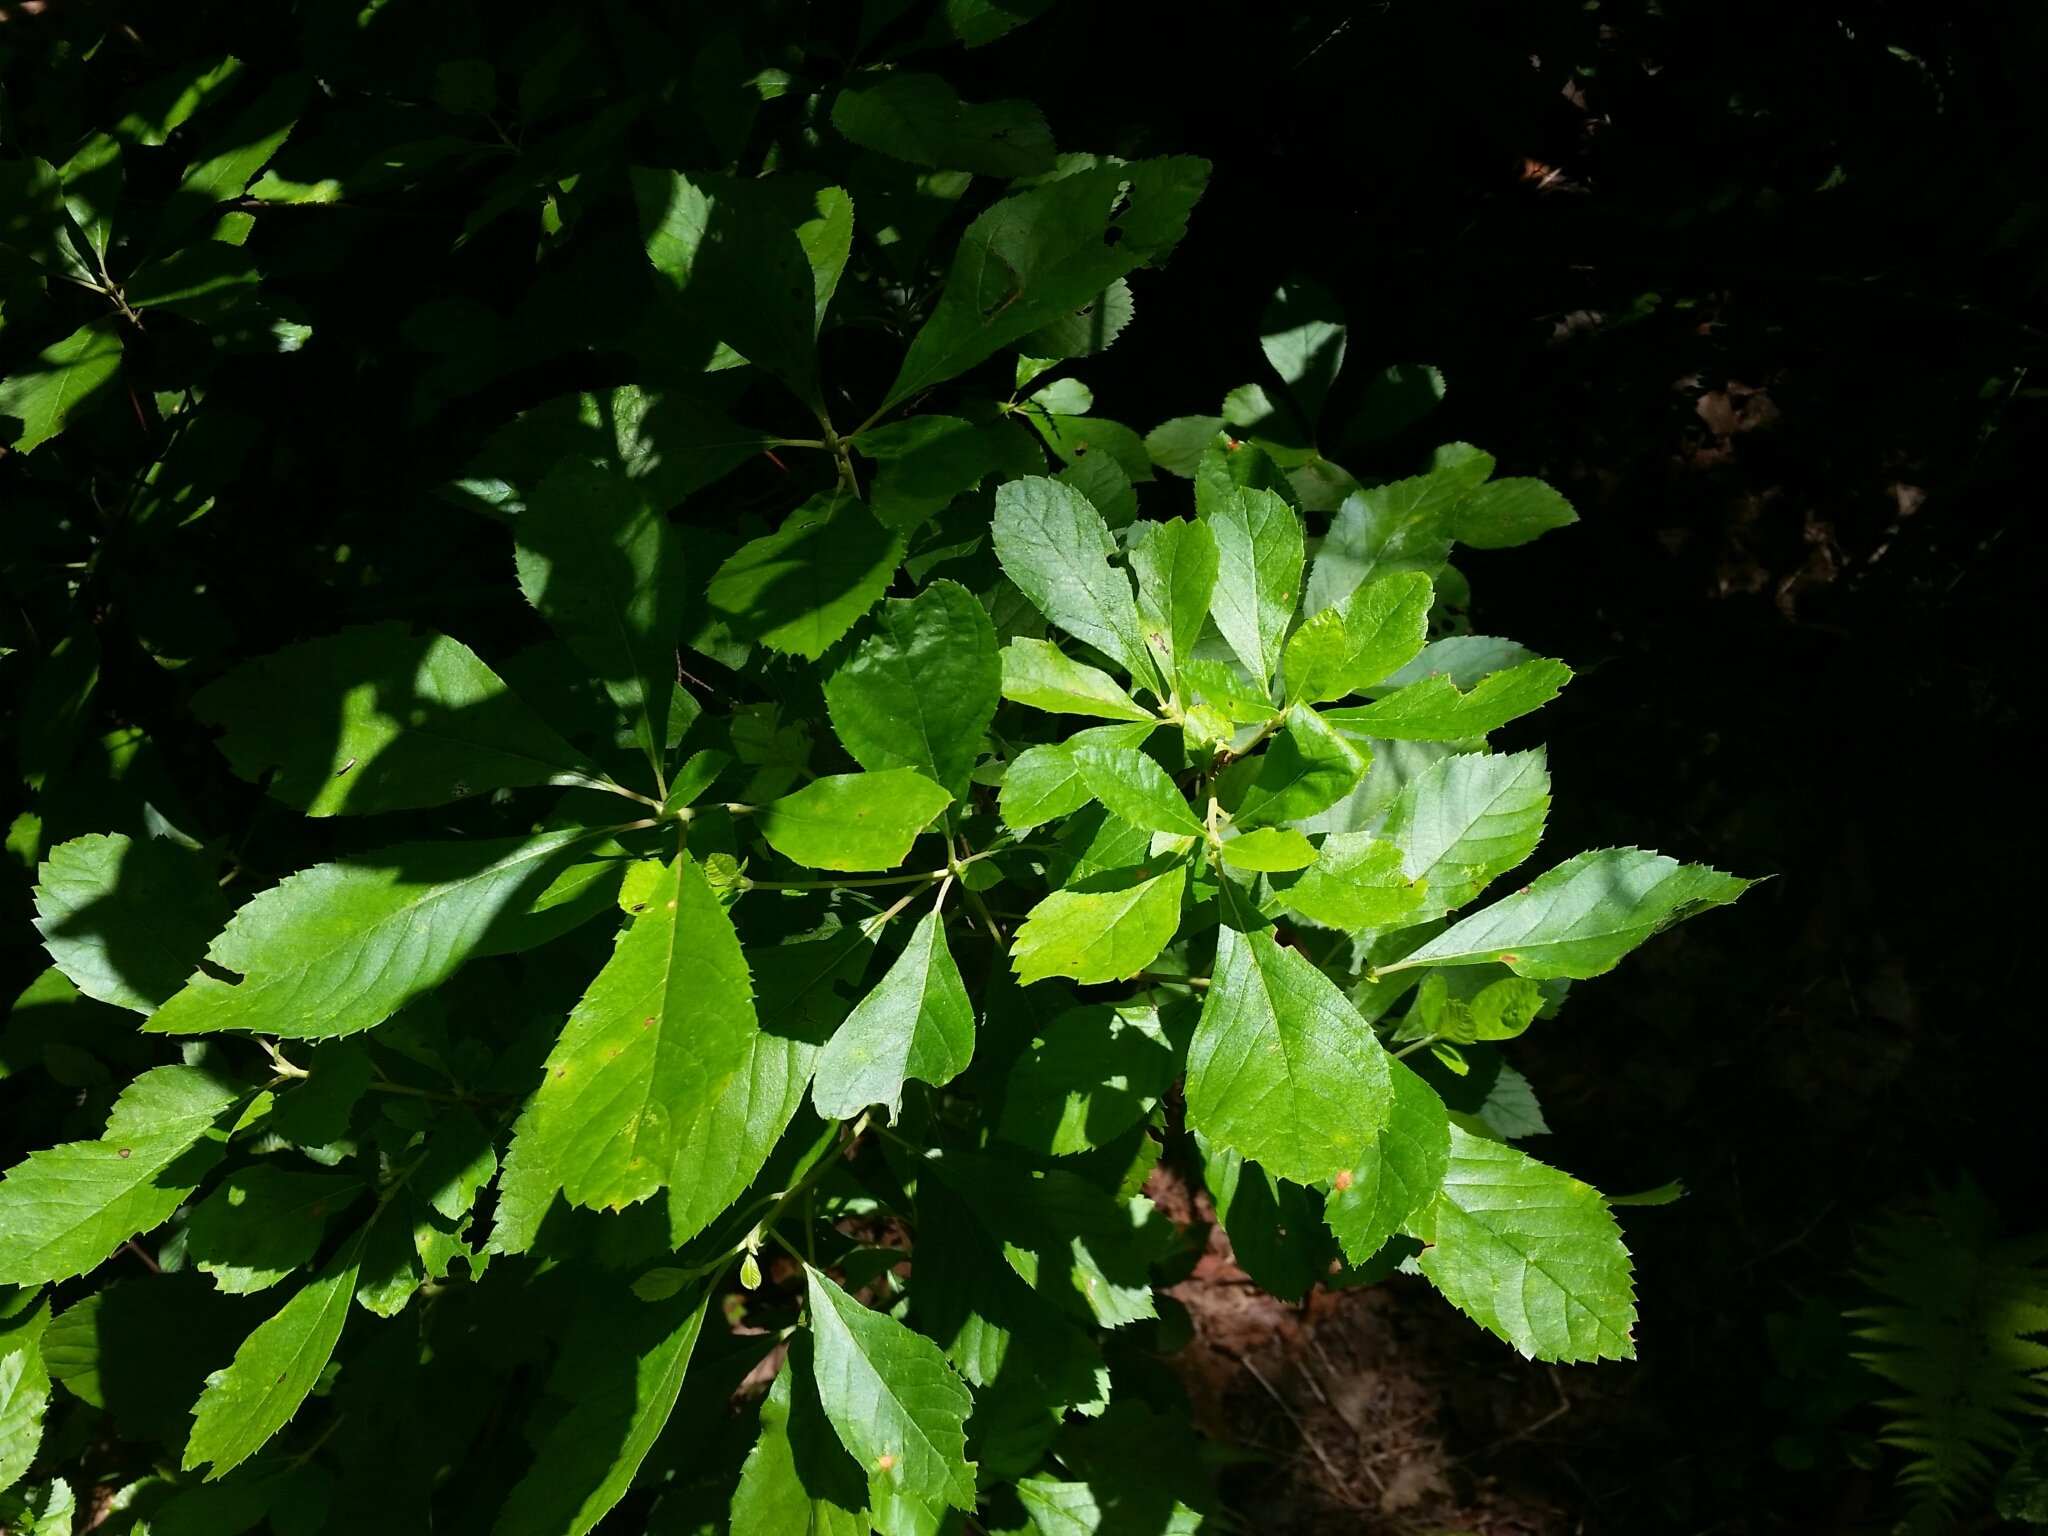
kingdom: Plantae
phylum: Tracheophyta
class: Magnoliopsida
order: Ericales
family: Clethraceae
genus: Clethra
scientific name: Clethra alnifolia
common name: Sweet pepperbush
